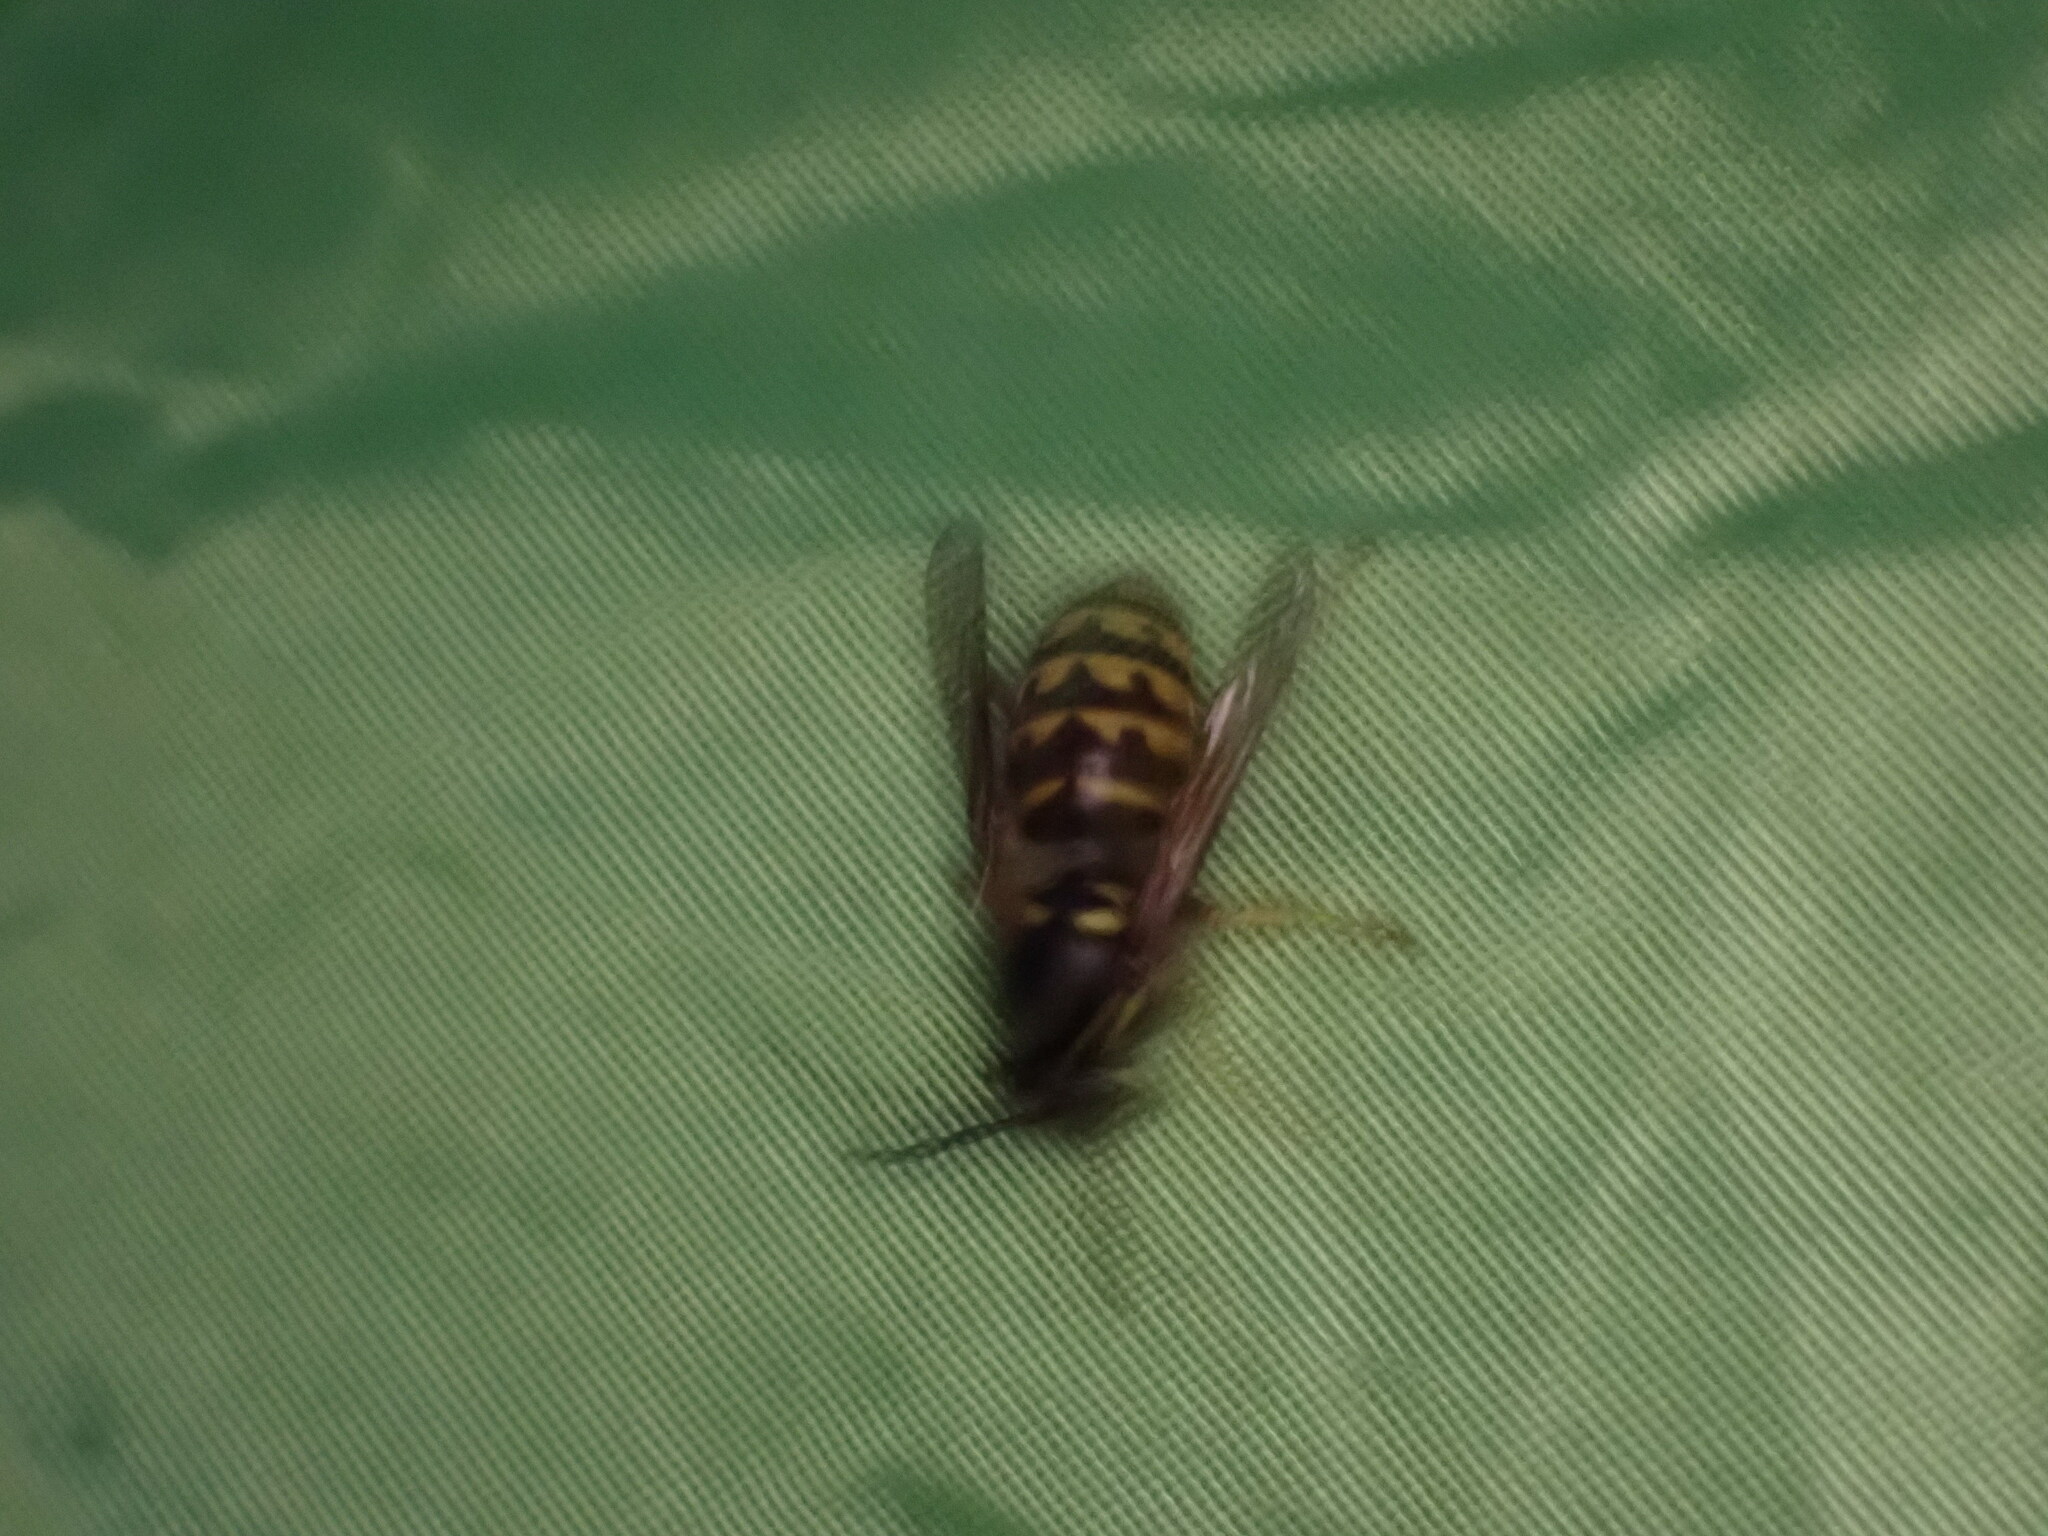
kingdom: Animalia
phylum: Arthropoda
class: Insecta
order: Hymenoptera
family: Vespidae
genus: Dolichovespula
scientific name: Dolichovespula arenaria
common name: Aerial yellowjacket
